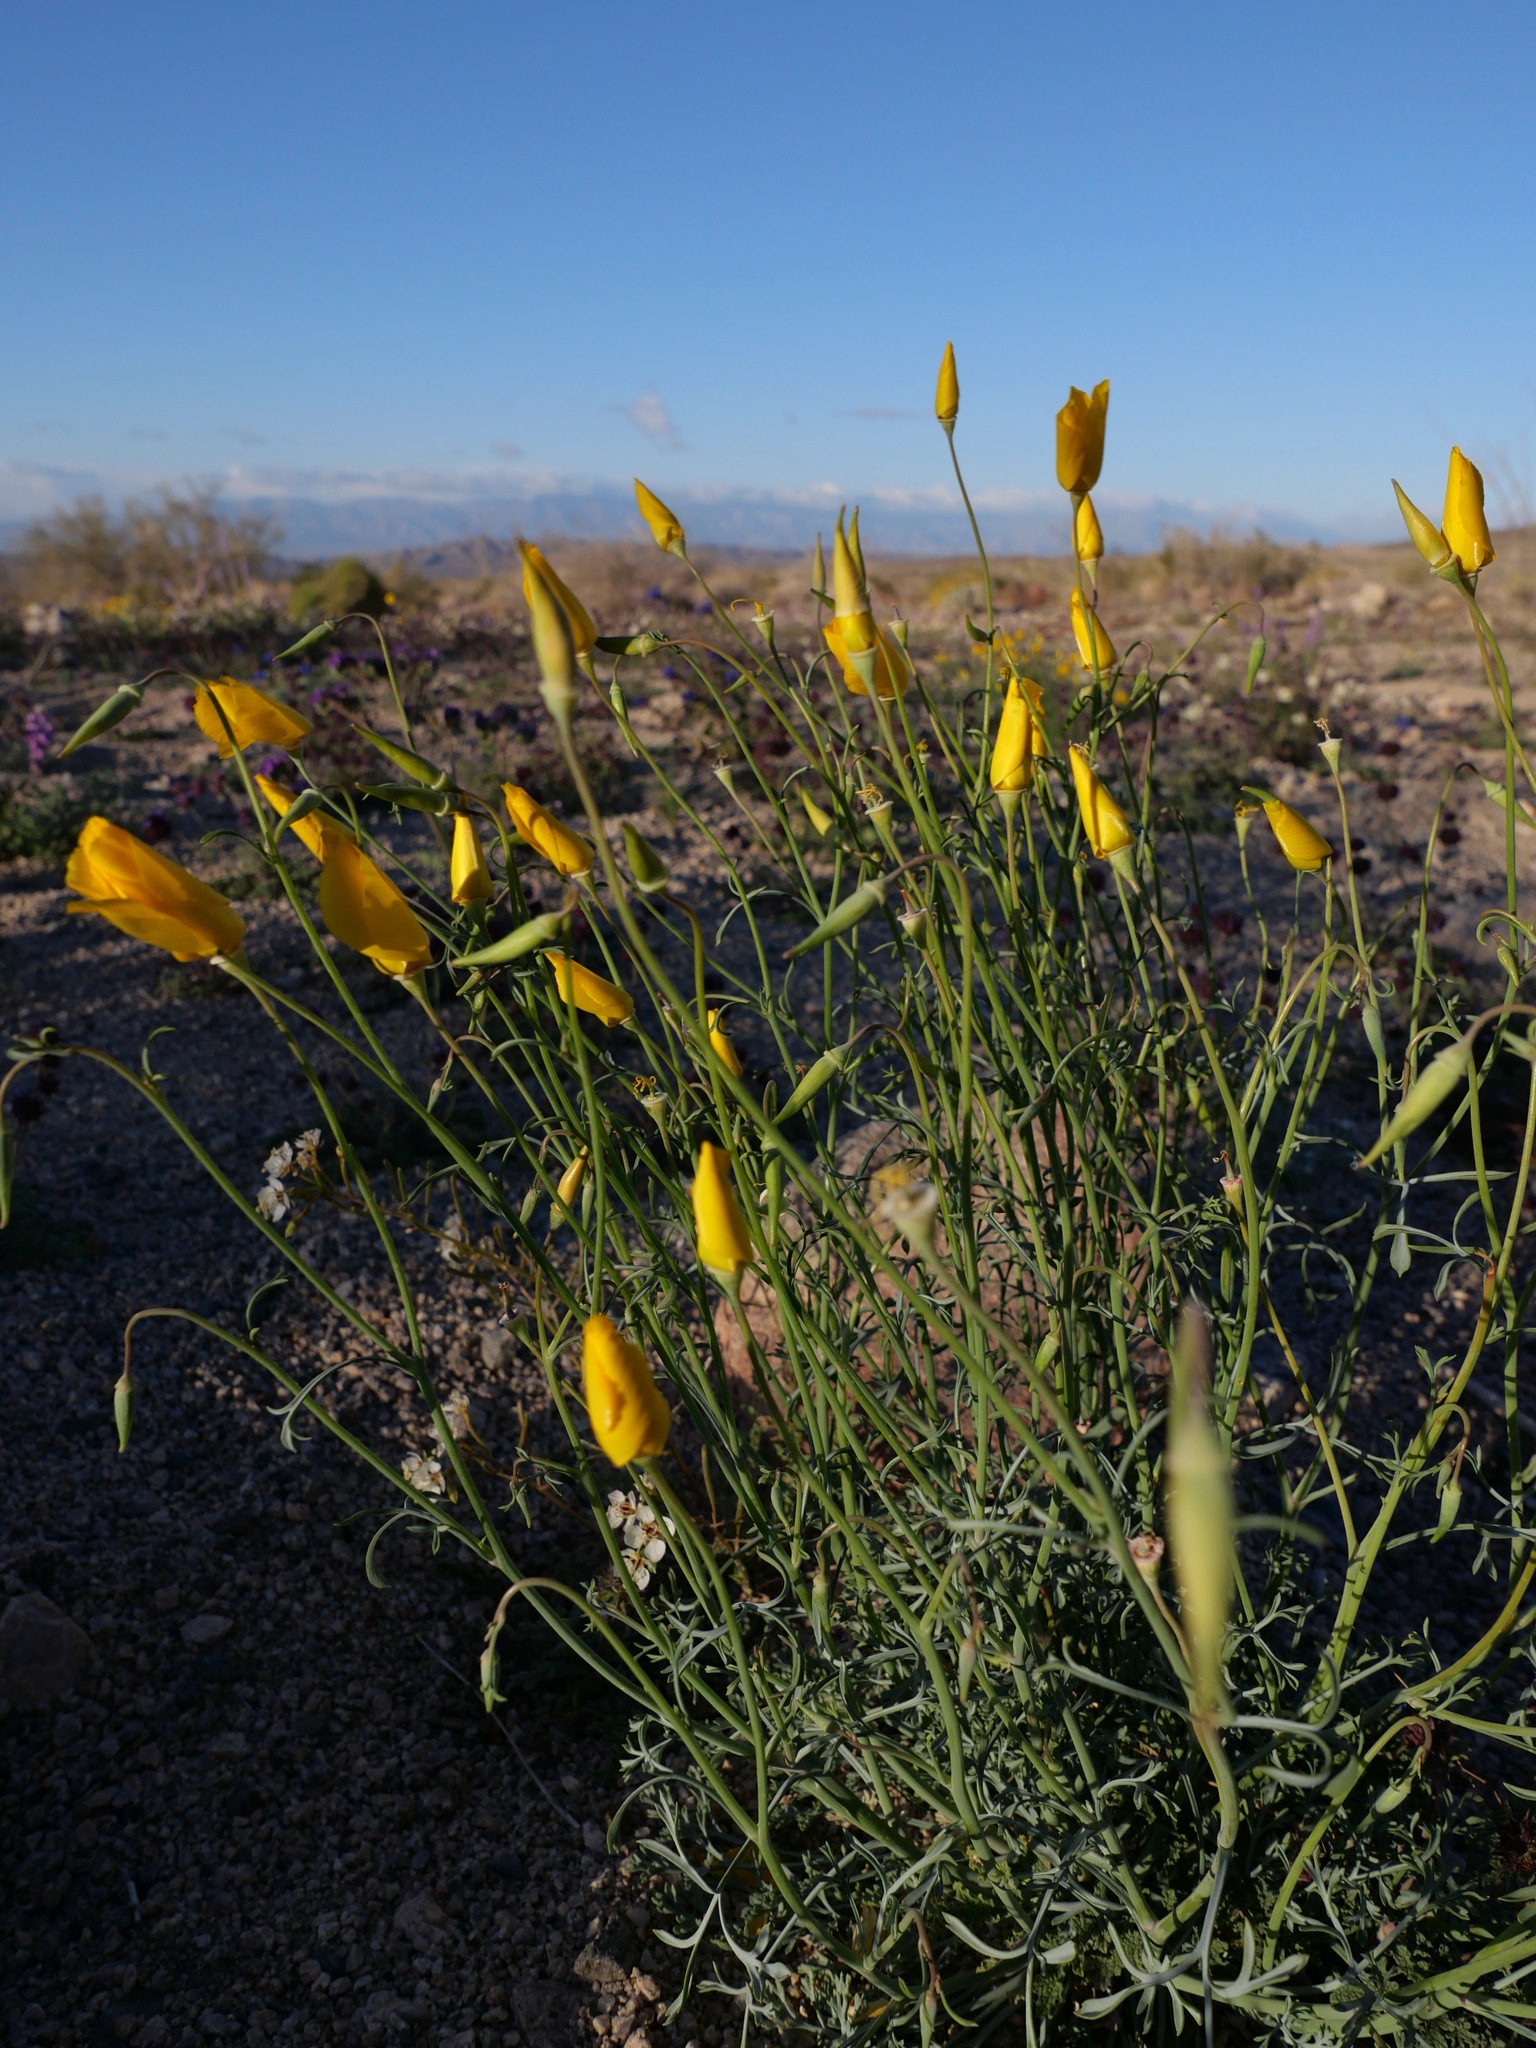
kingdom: Plantae
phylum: Tracheophyta
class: Magnoliopsida
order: Ranunculales
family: Papaveraceae
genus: Eschscholzia
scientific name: Eschscholzia papastillii
